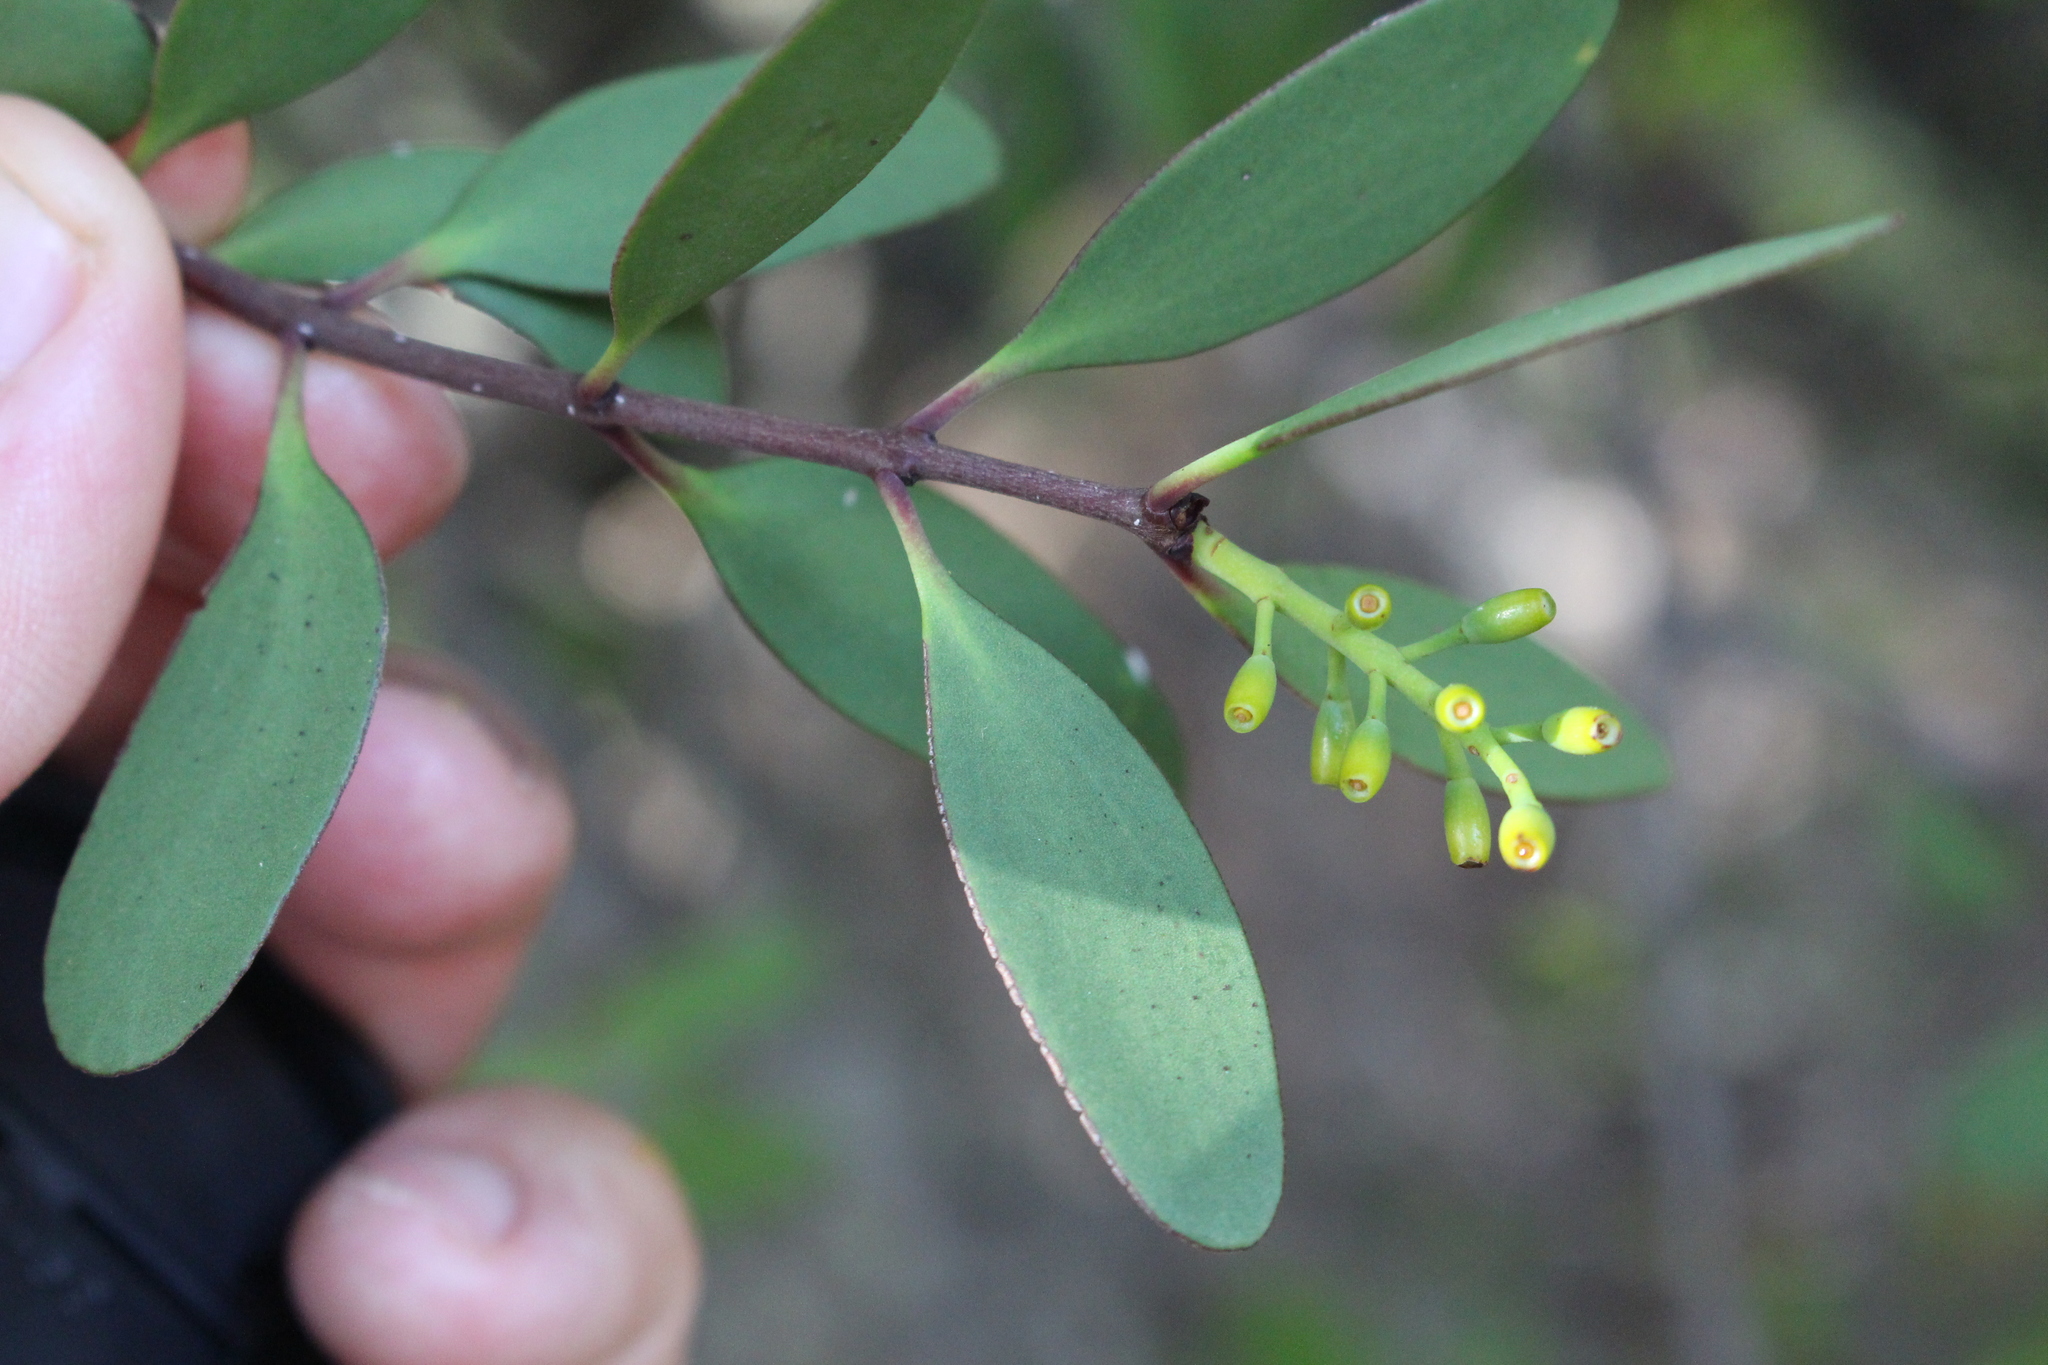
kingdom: Plantae
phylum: Tracheophyta
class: Magnoliopsida
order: Santalales
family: Loranthaceae
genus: Alepis
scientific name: Alepis flavida
